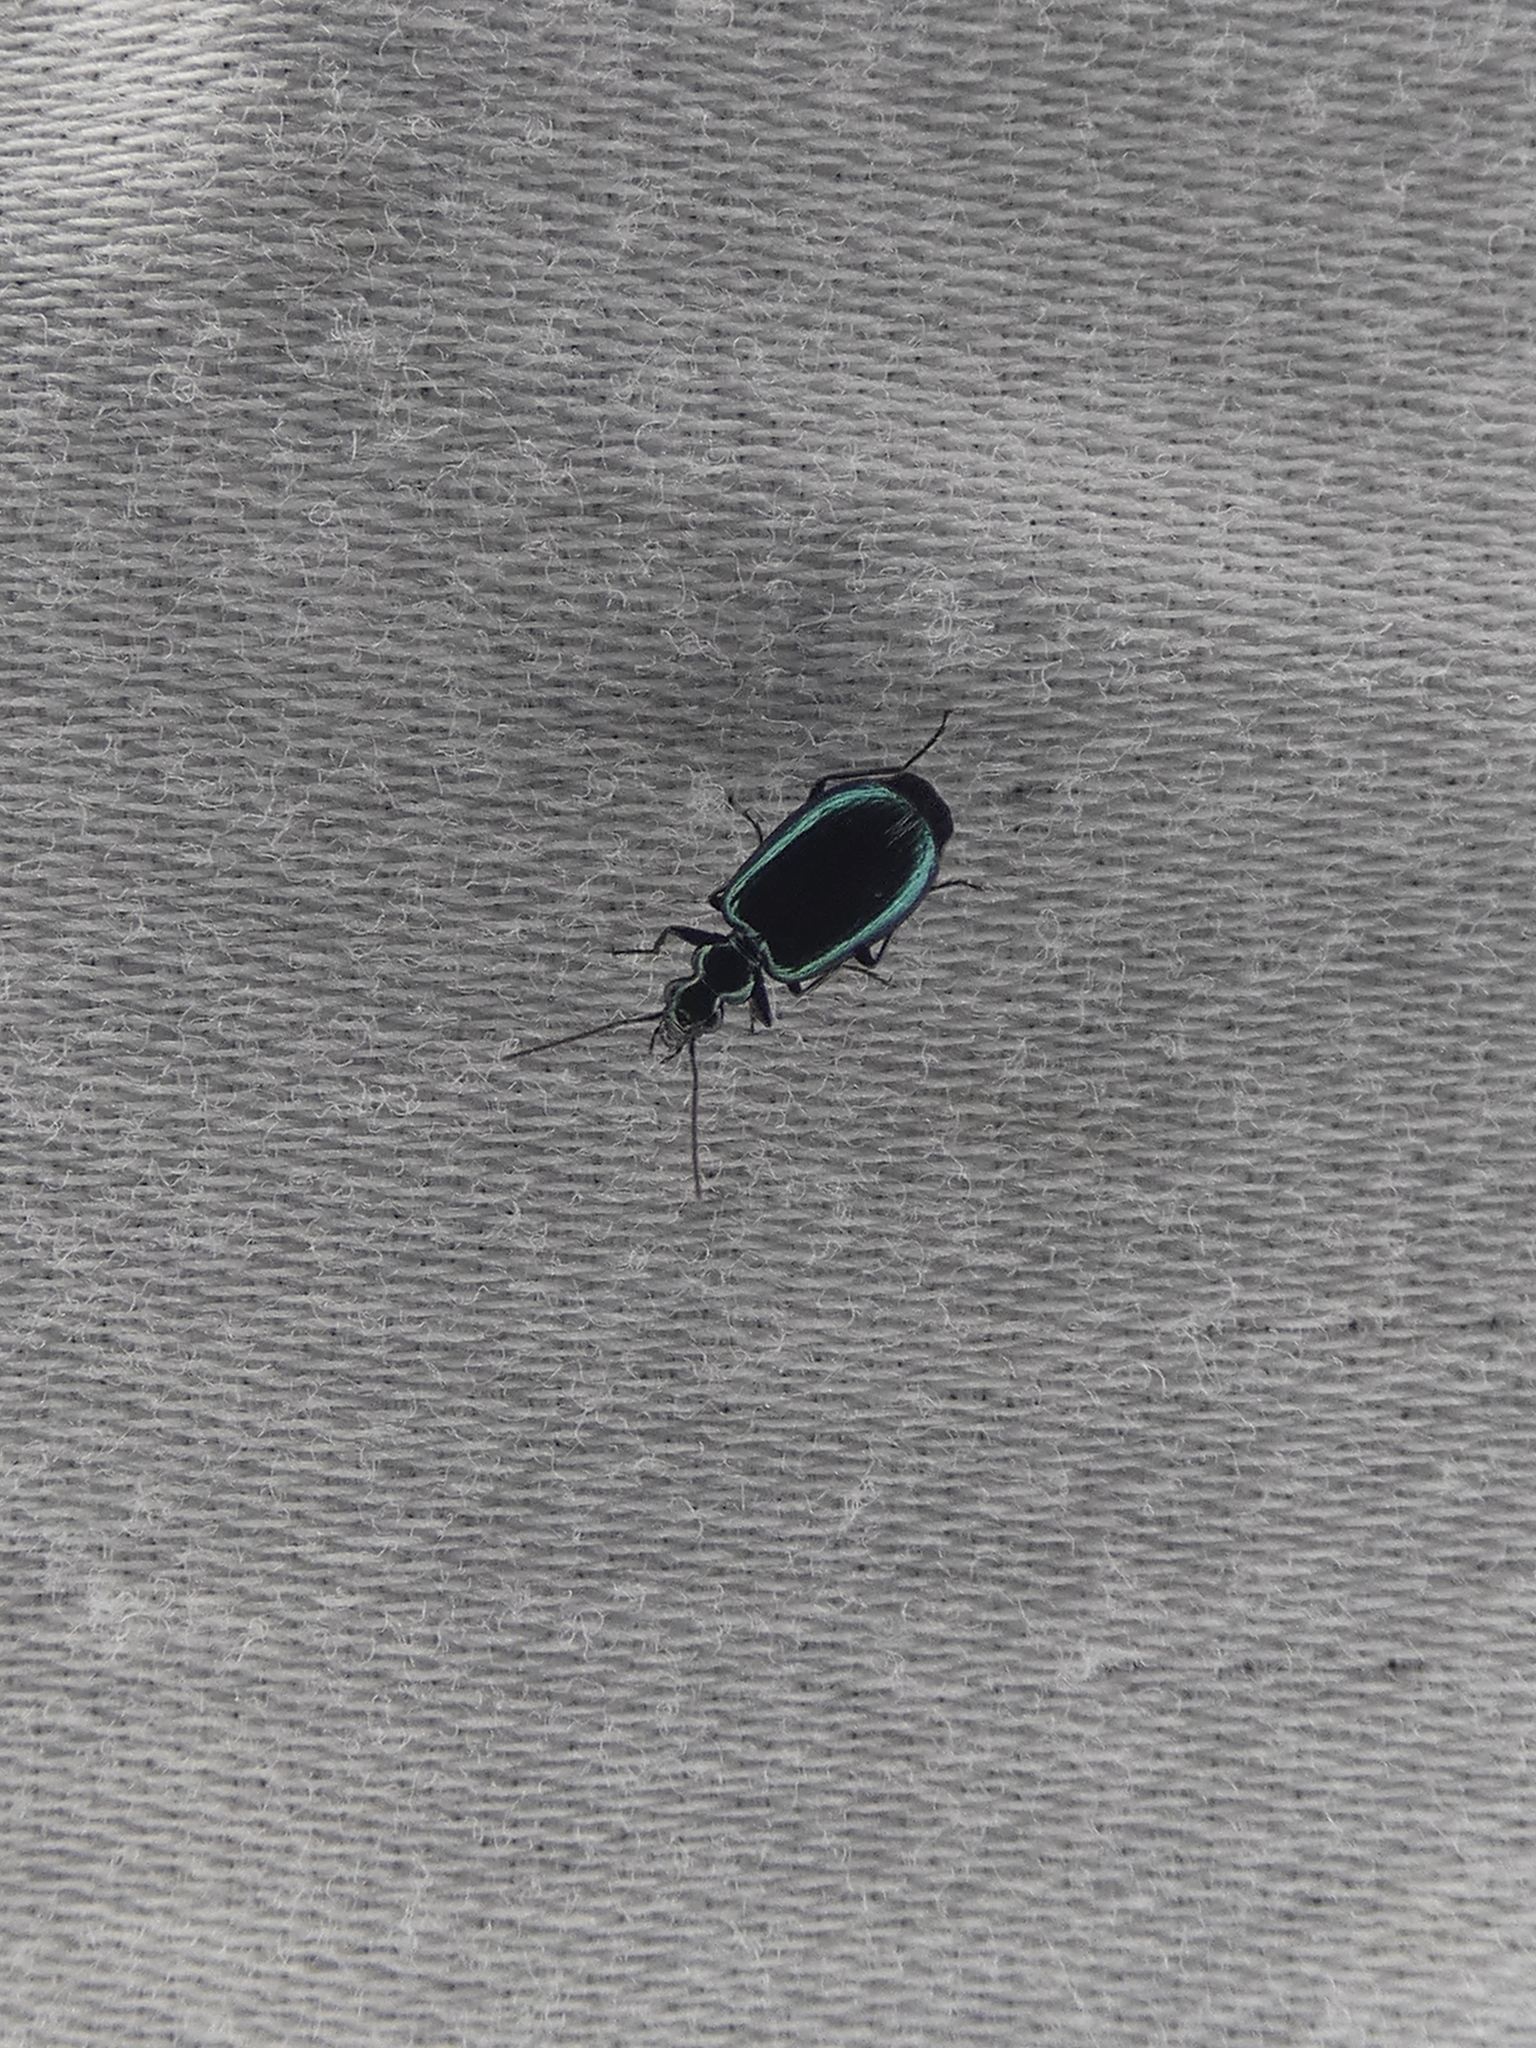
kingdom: Animalia
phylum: Arthropoda
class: Insecta
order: Coleoptera
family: Carabidae
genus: Lebia
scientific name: Lebia viridis
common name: Flower lebia beetle
